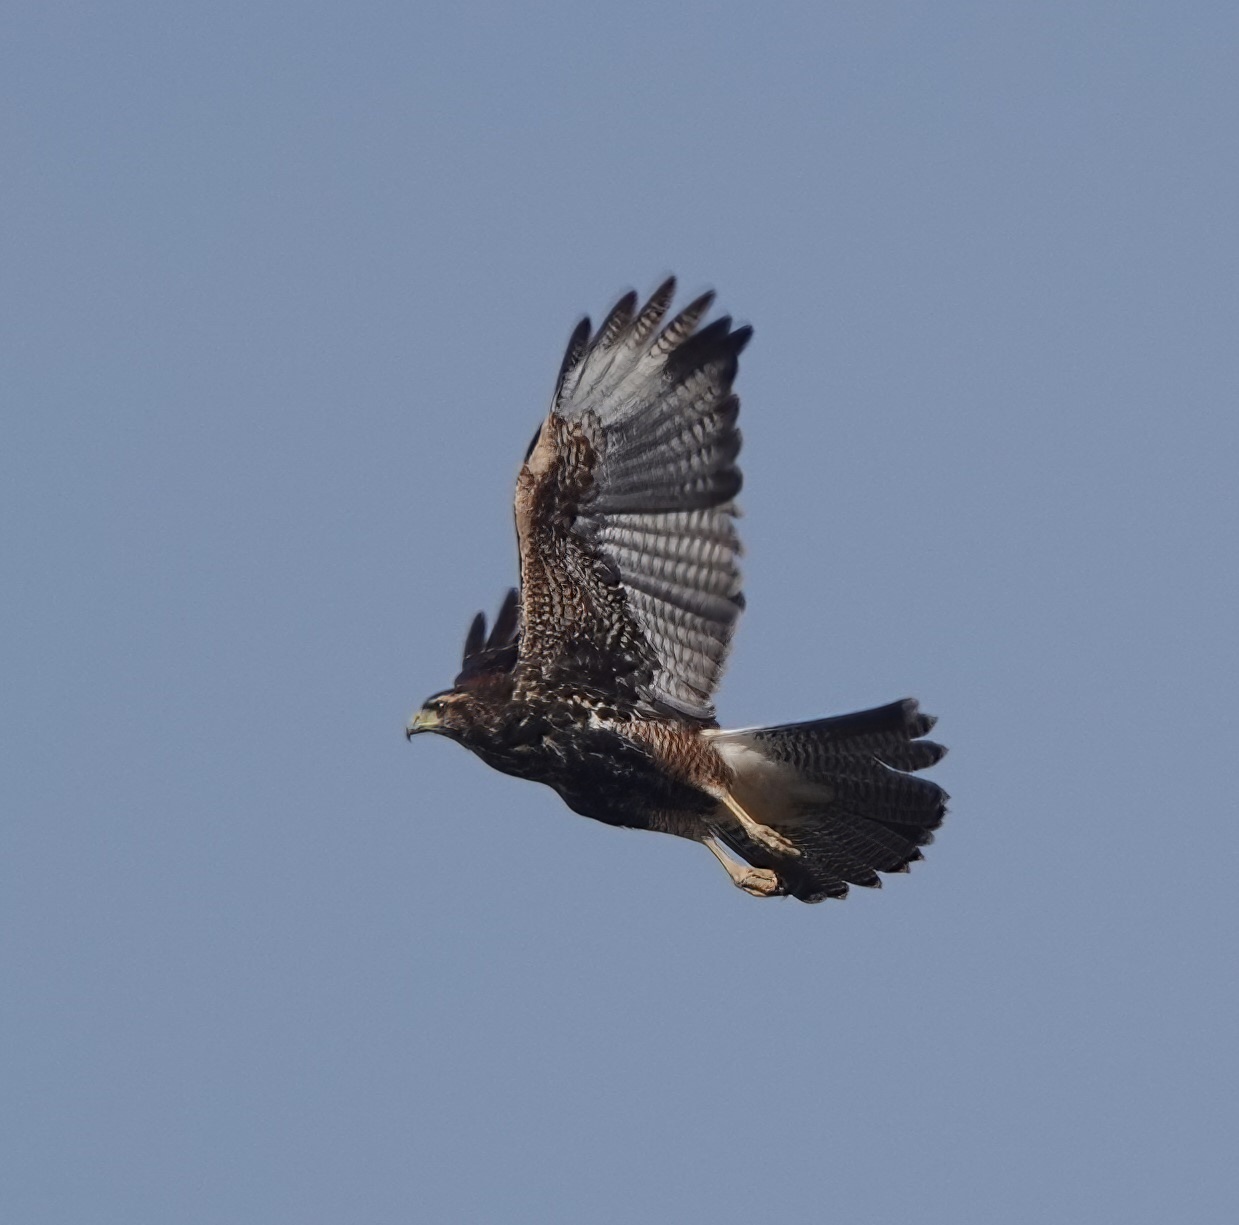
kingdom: Animalia
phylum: Chordata
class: Aves
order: Accipitriformes
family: Accipitridae
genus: Parabuteo
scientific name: Parabuteo unicinctus
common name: Harris's hawk
